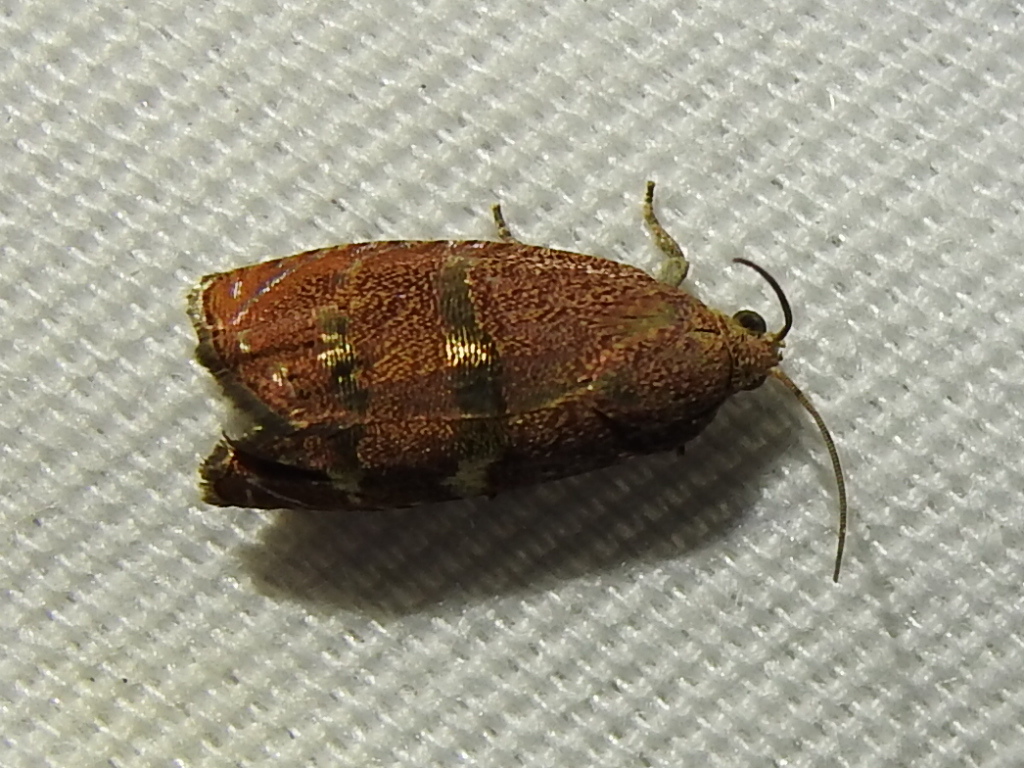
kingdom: Animalia
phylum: Arthropoda
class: Insecta
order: Lepidoptera
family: Tortricidae
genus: Cydia
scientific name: Cydia latiferreana
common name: Filbertworm moth
